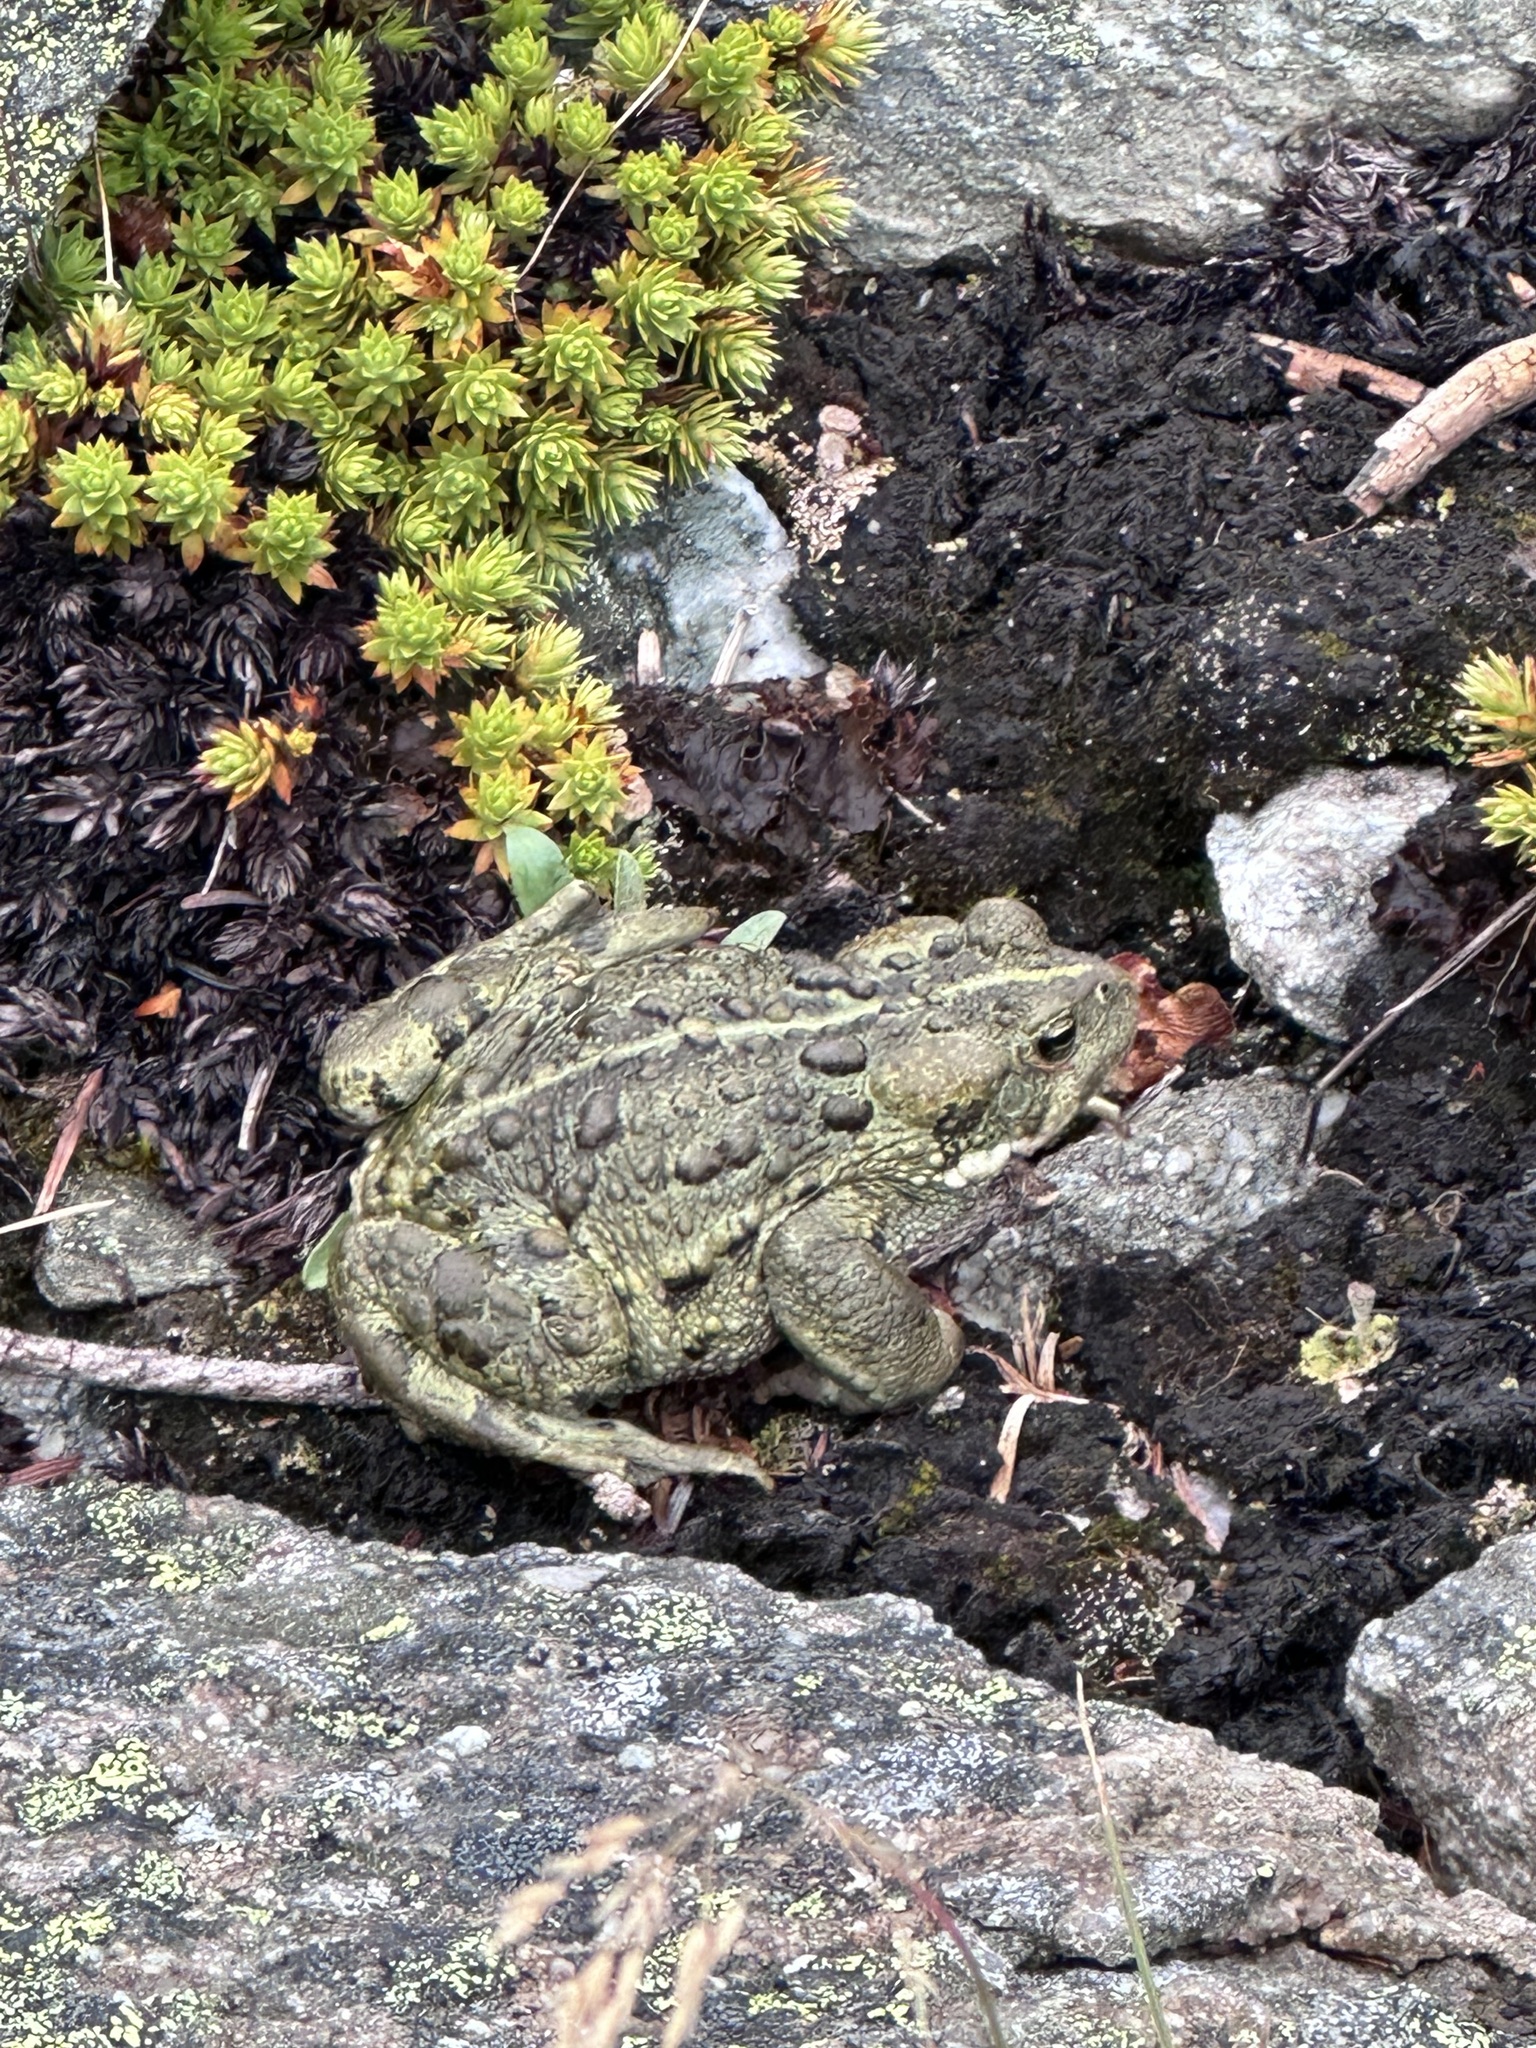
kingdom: Animalia
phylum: Chordata
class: Amphibia
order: Anura
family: Bufonidae
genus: Anaxyrus
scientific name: Anaxyrus boreas
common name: Western toad
